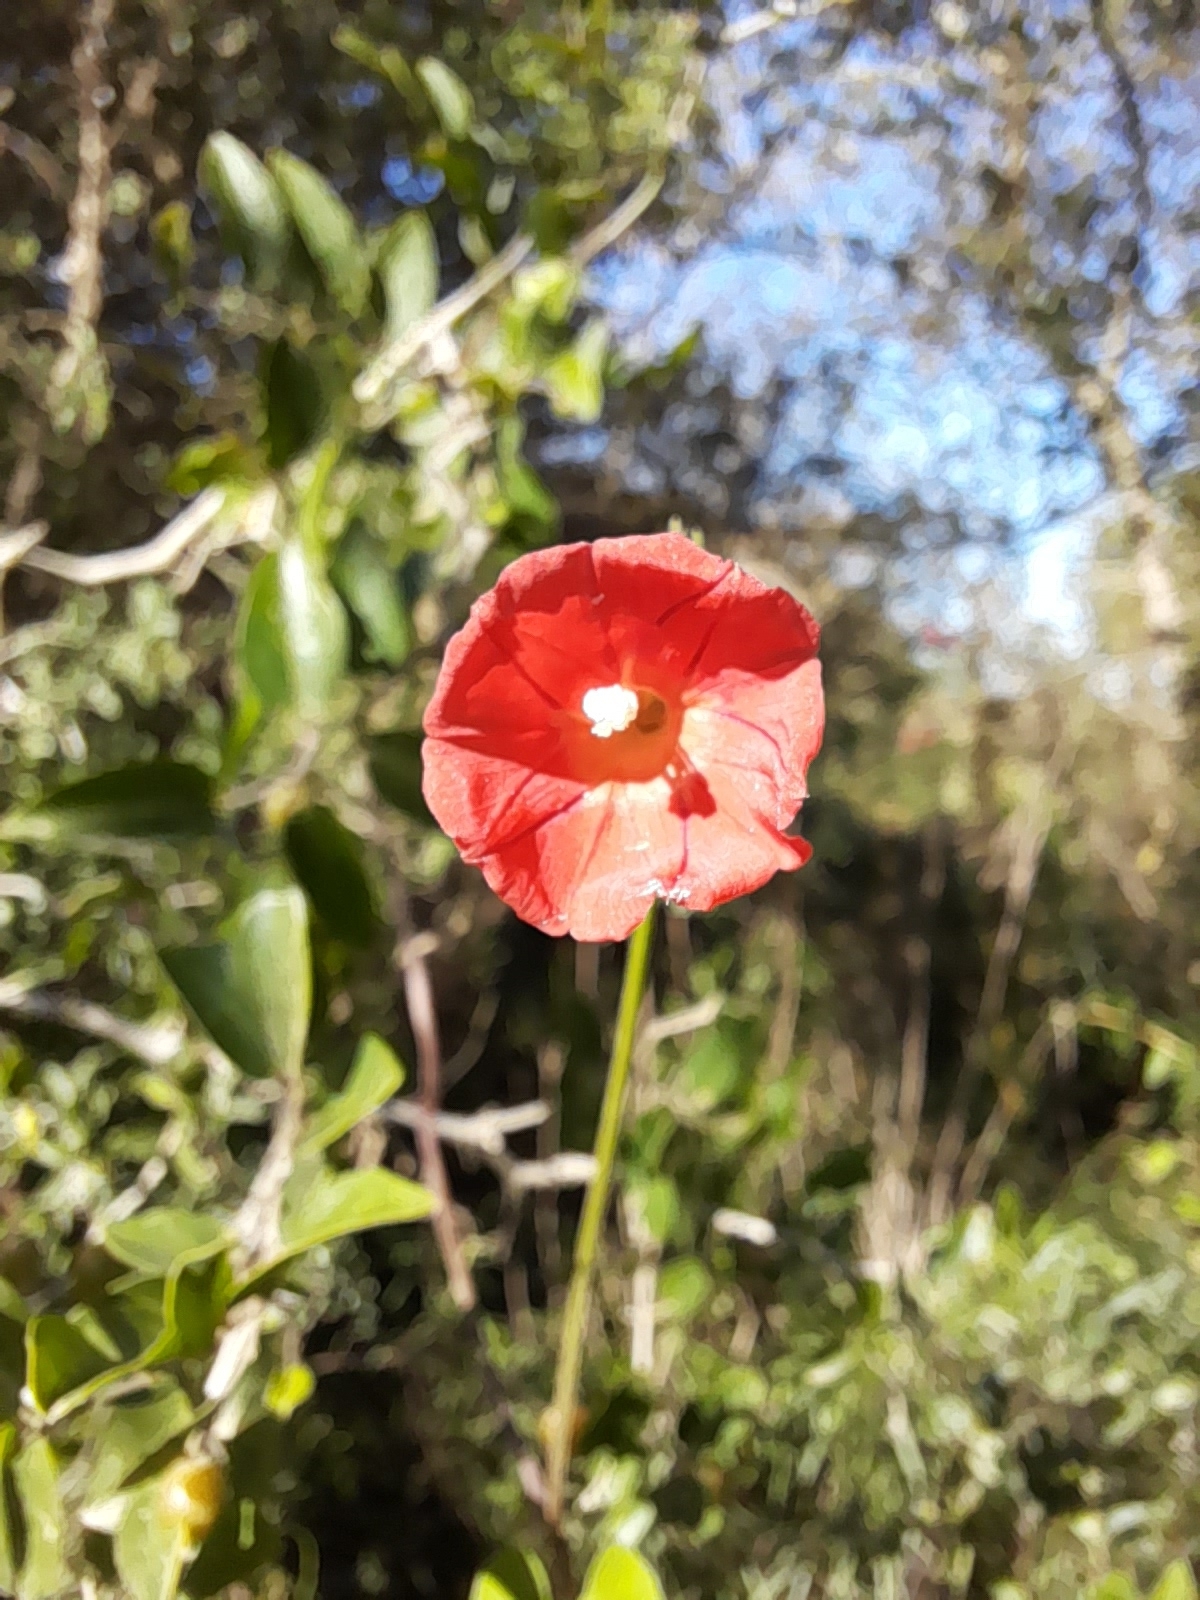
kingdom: Plantae
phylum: Tracheophyta
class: Magnoliopsida
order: Solanales
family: Convolvulaceae
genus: Ipomoea
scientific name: Ipomoea indivisa
